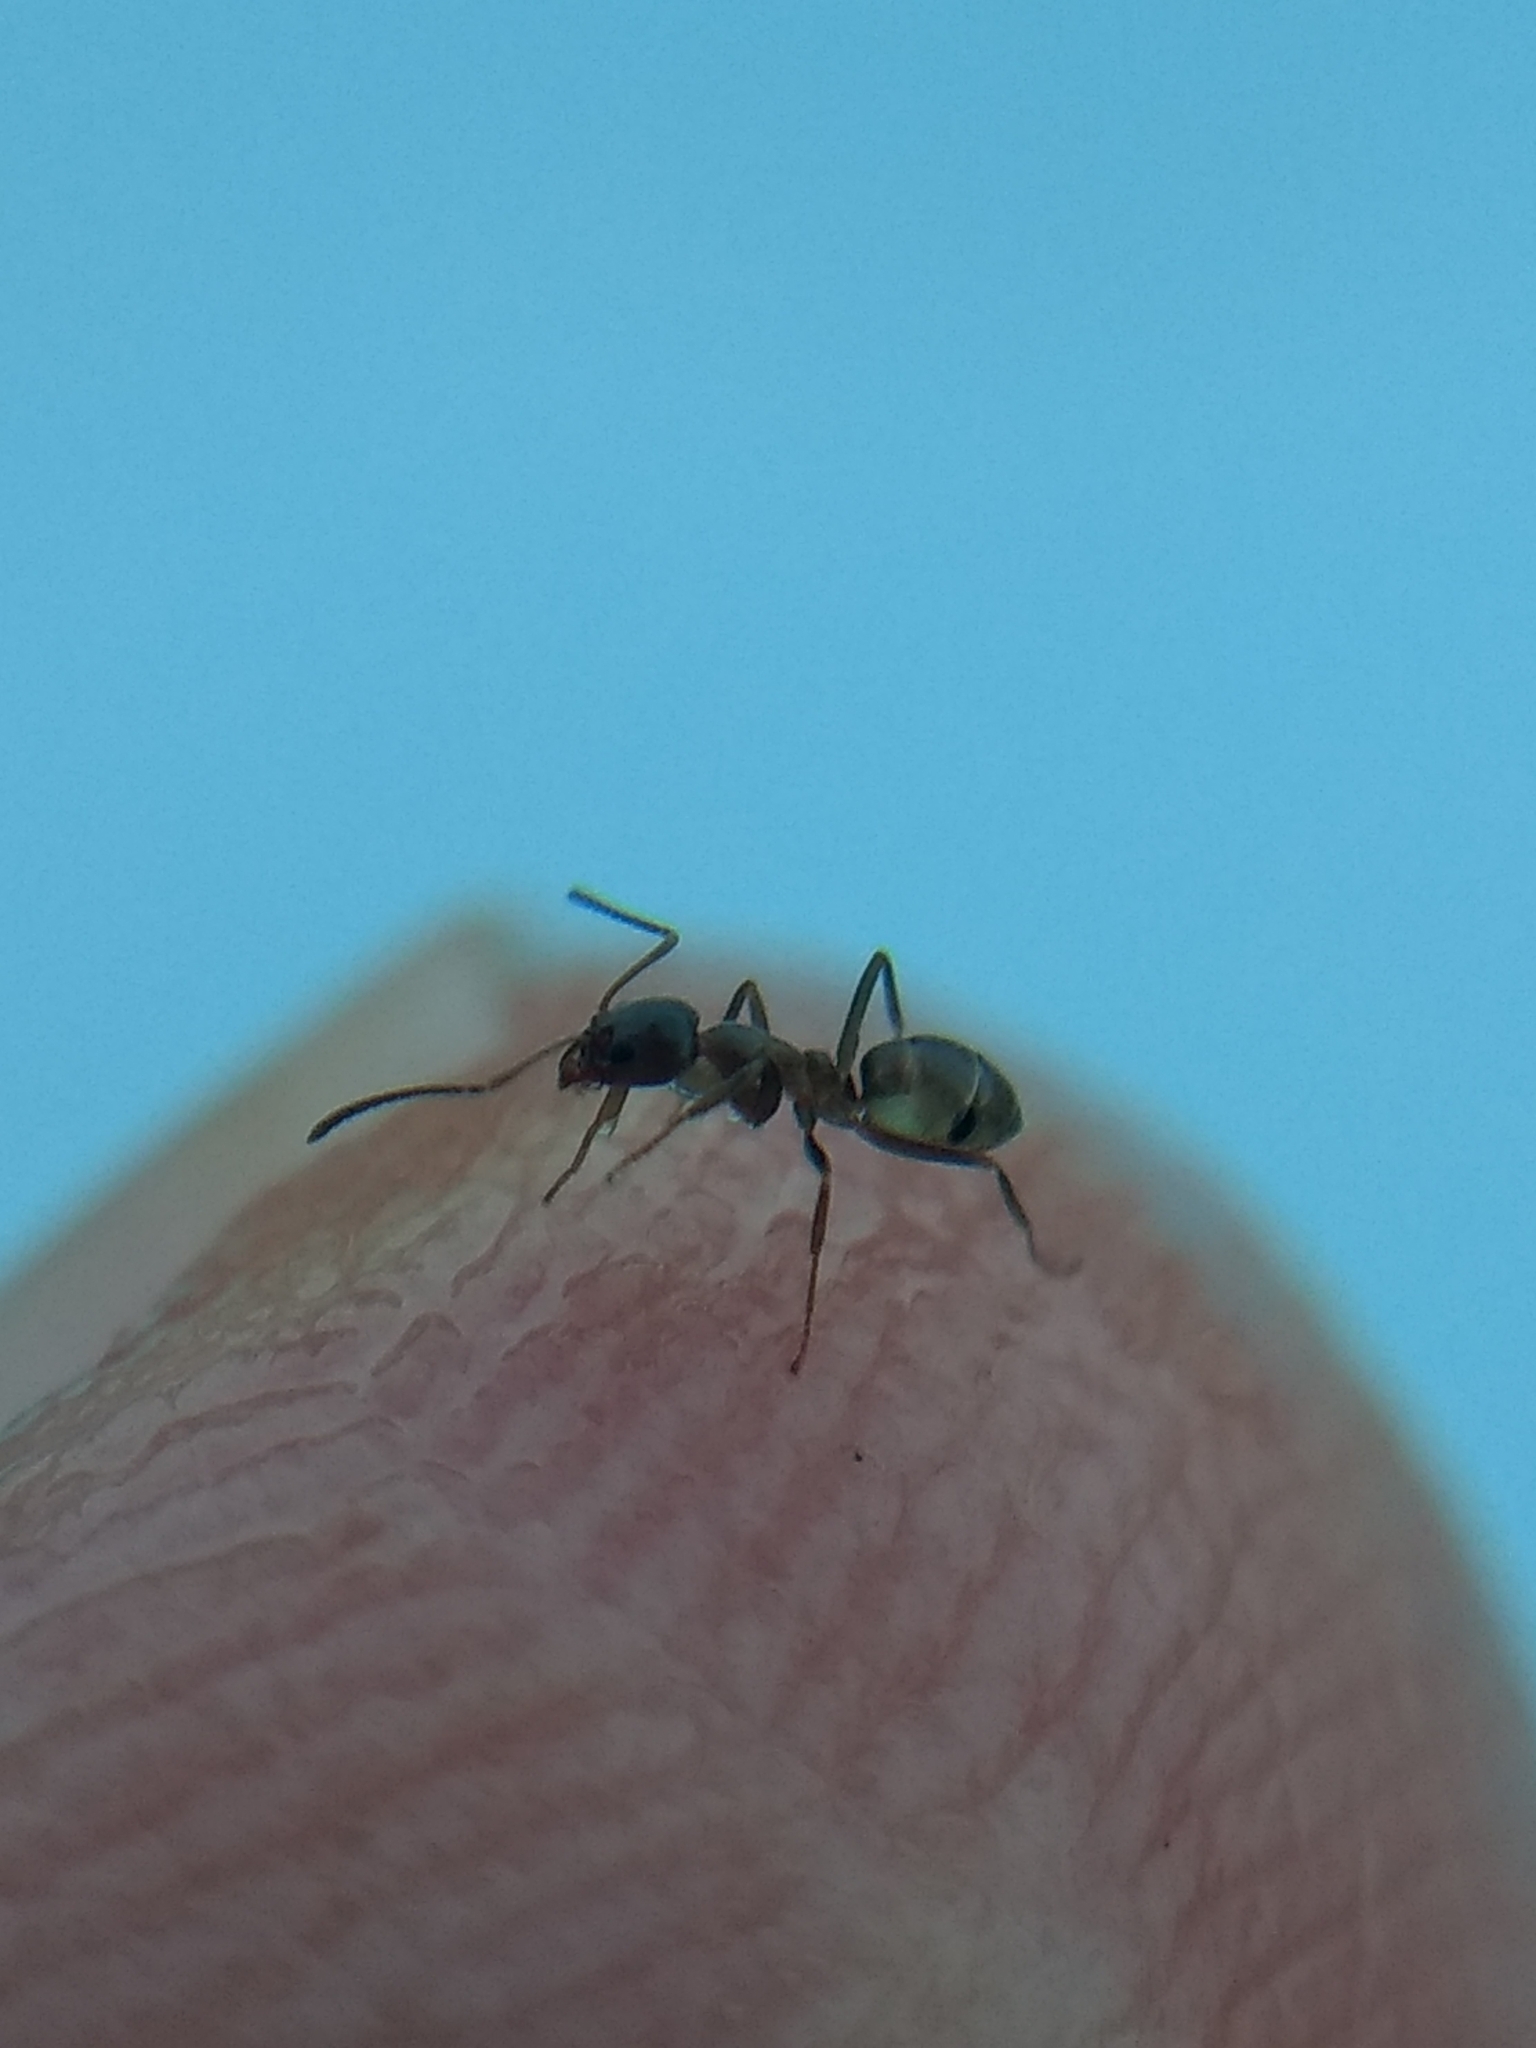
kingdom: Animalia
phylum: Arthropoda
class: Insecta
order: Hymenoptera
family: Formicidae
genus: Linepithema
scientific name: Linepithema humile
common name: Argentine ant
